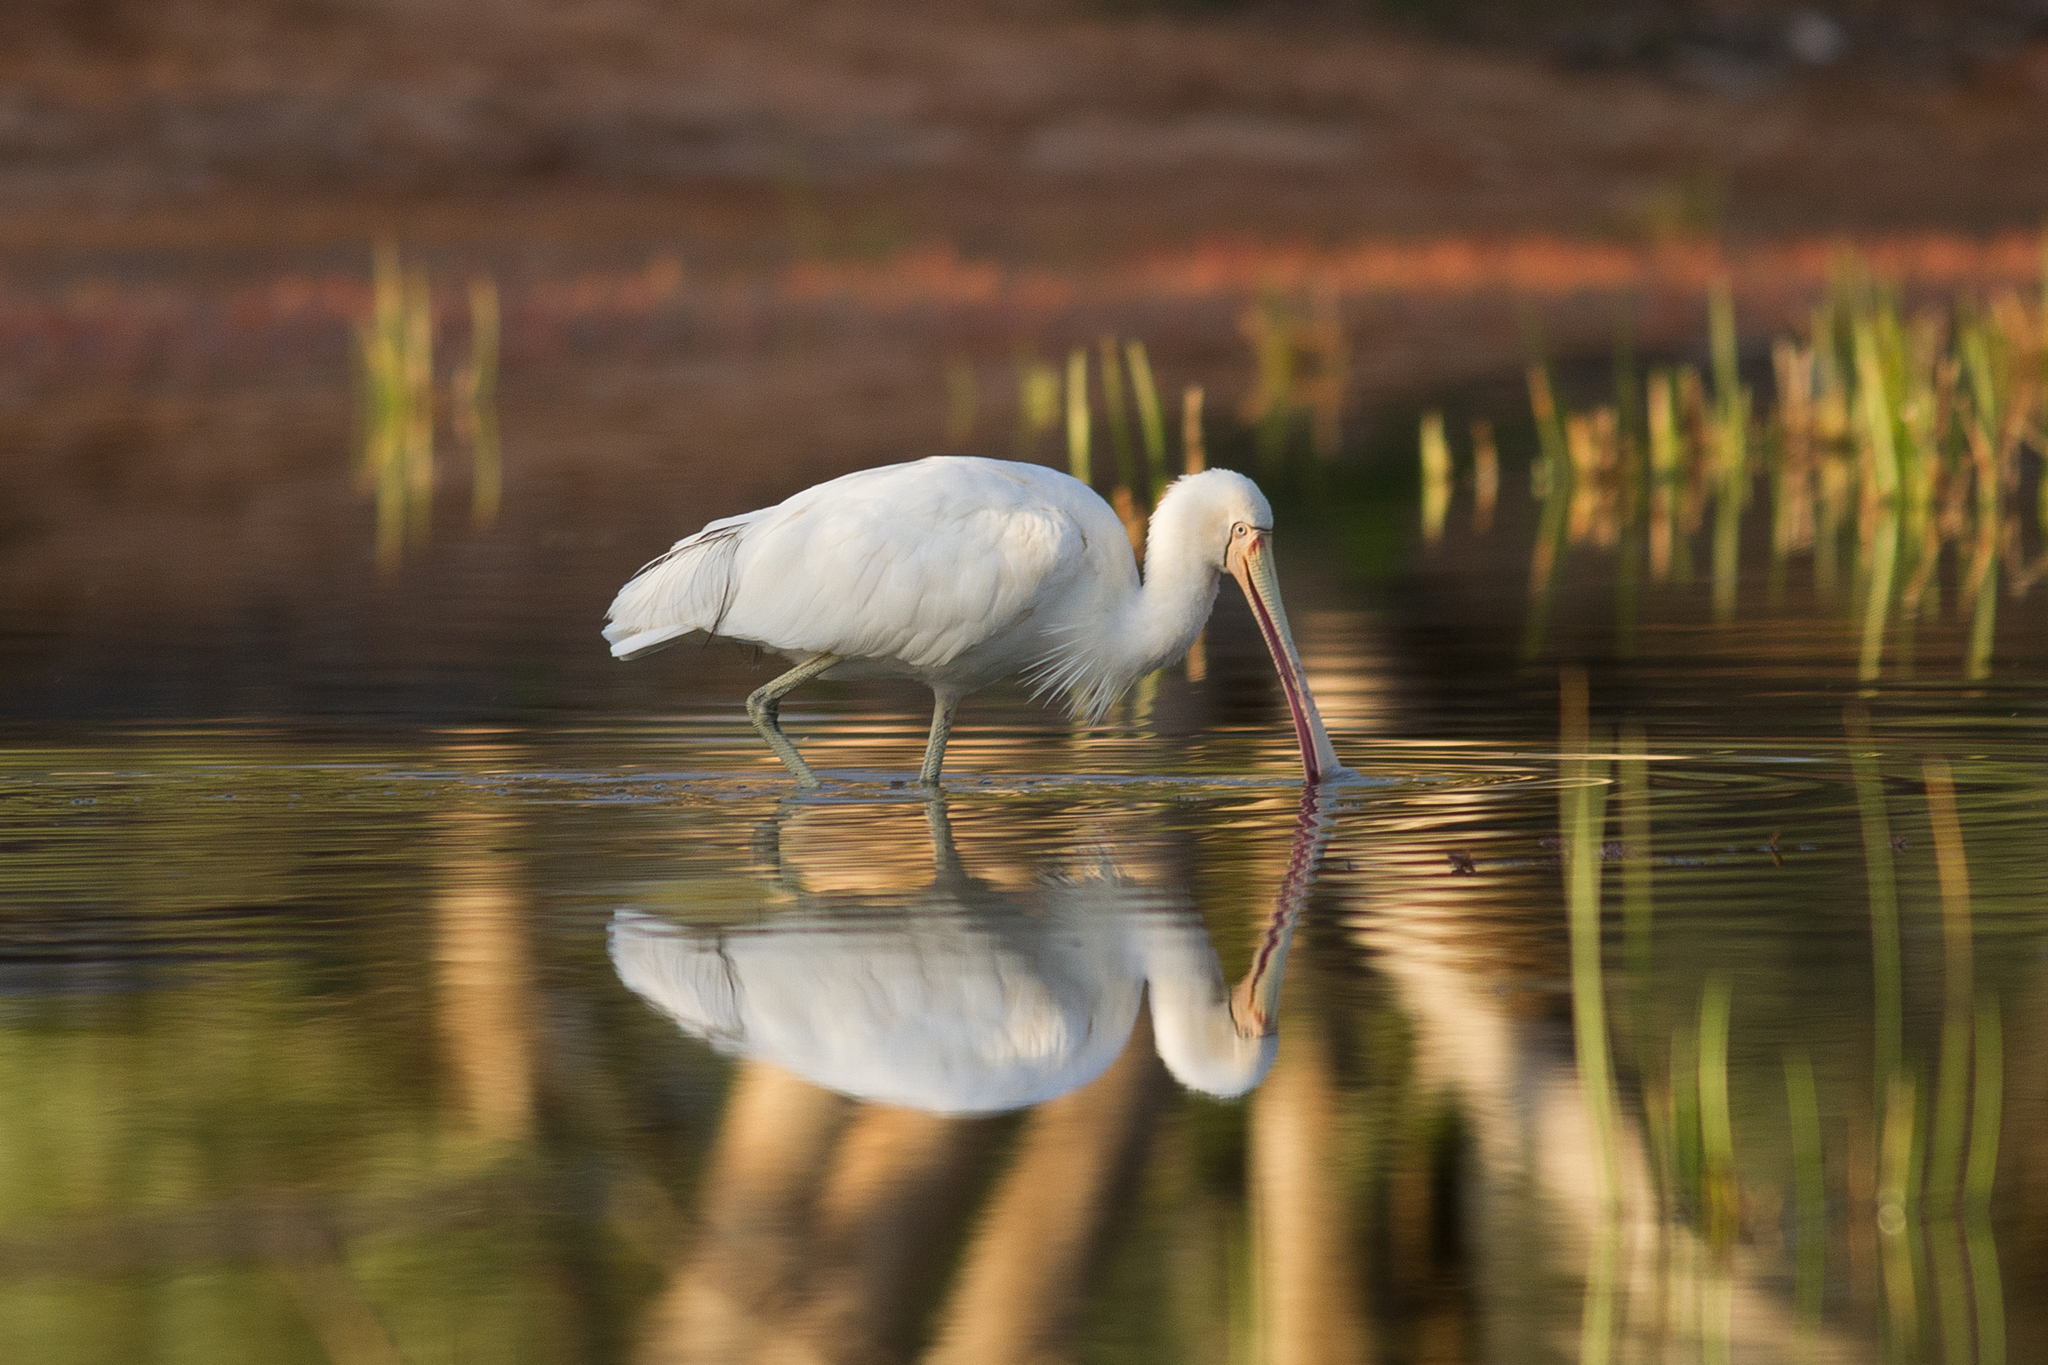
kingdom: Animalia
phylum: Chordata
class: Aves
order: Pelecaniformes
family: Threskiornithidae
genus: Platalea
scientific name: Platalea flavipes
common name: Yellow-billed spoonbill
